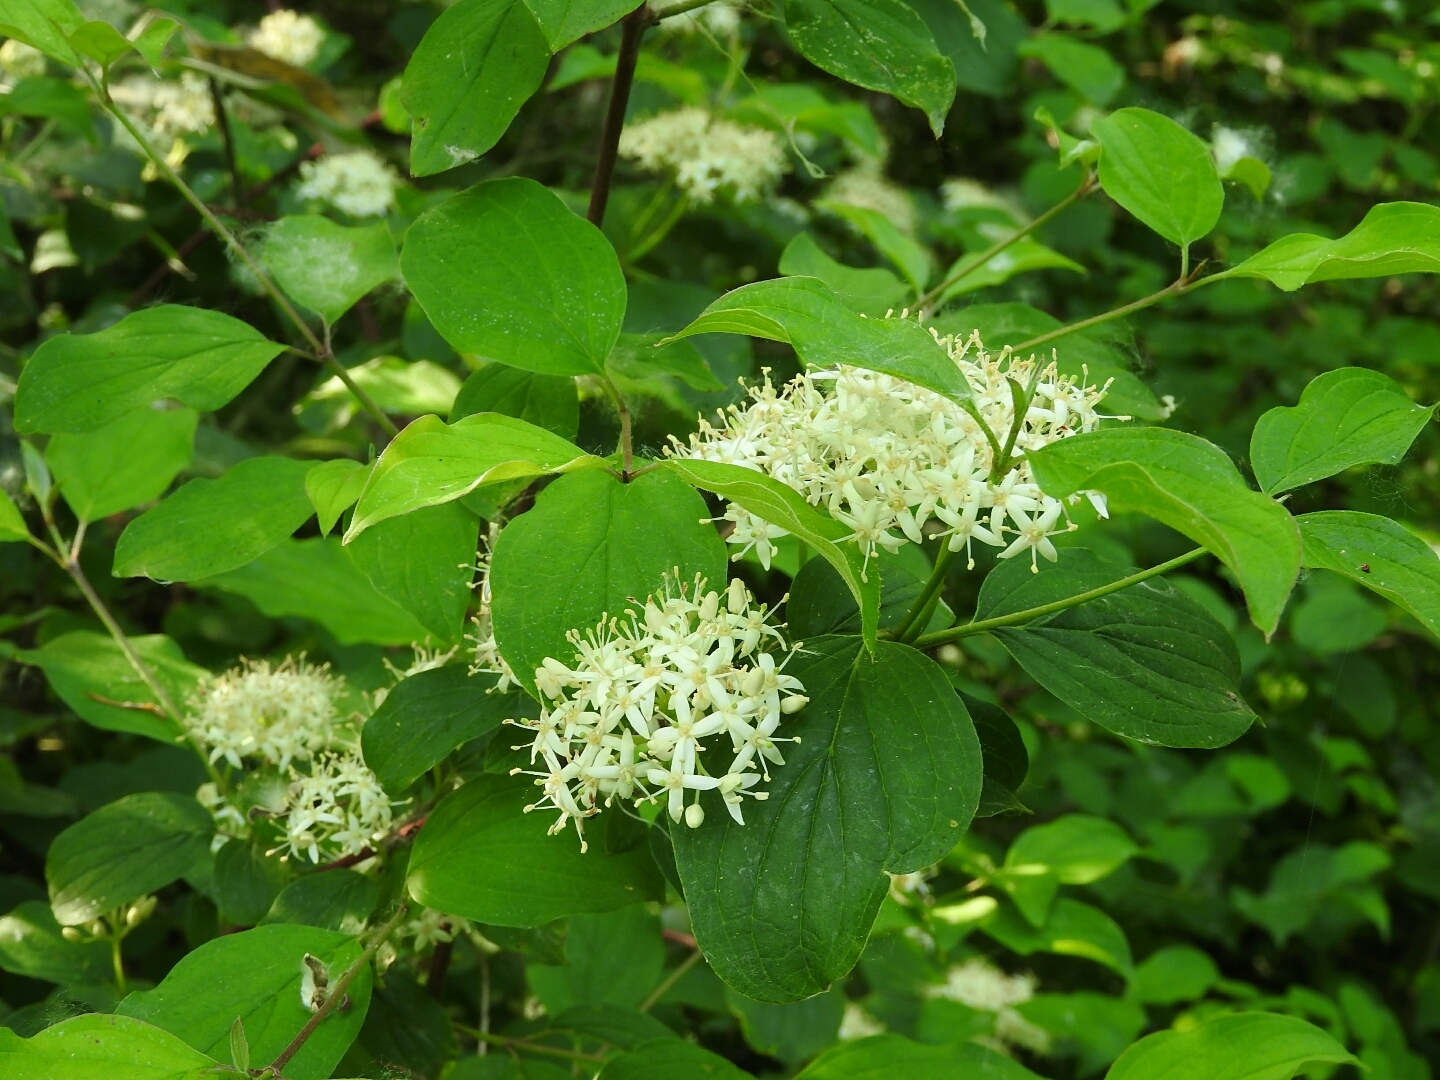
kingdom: Plantae
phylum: Tracheophyta
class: Magnoliopsida
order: Cornales
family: Cornaceae
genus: Cornus
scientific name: Cornus sanguinea
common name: Dogwood
